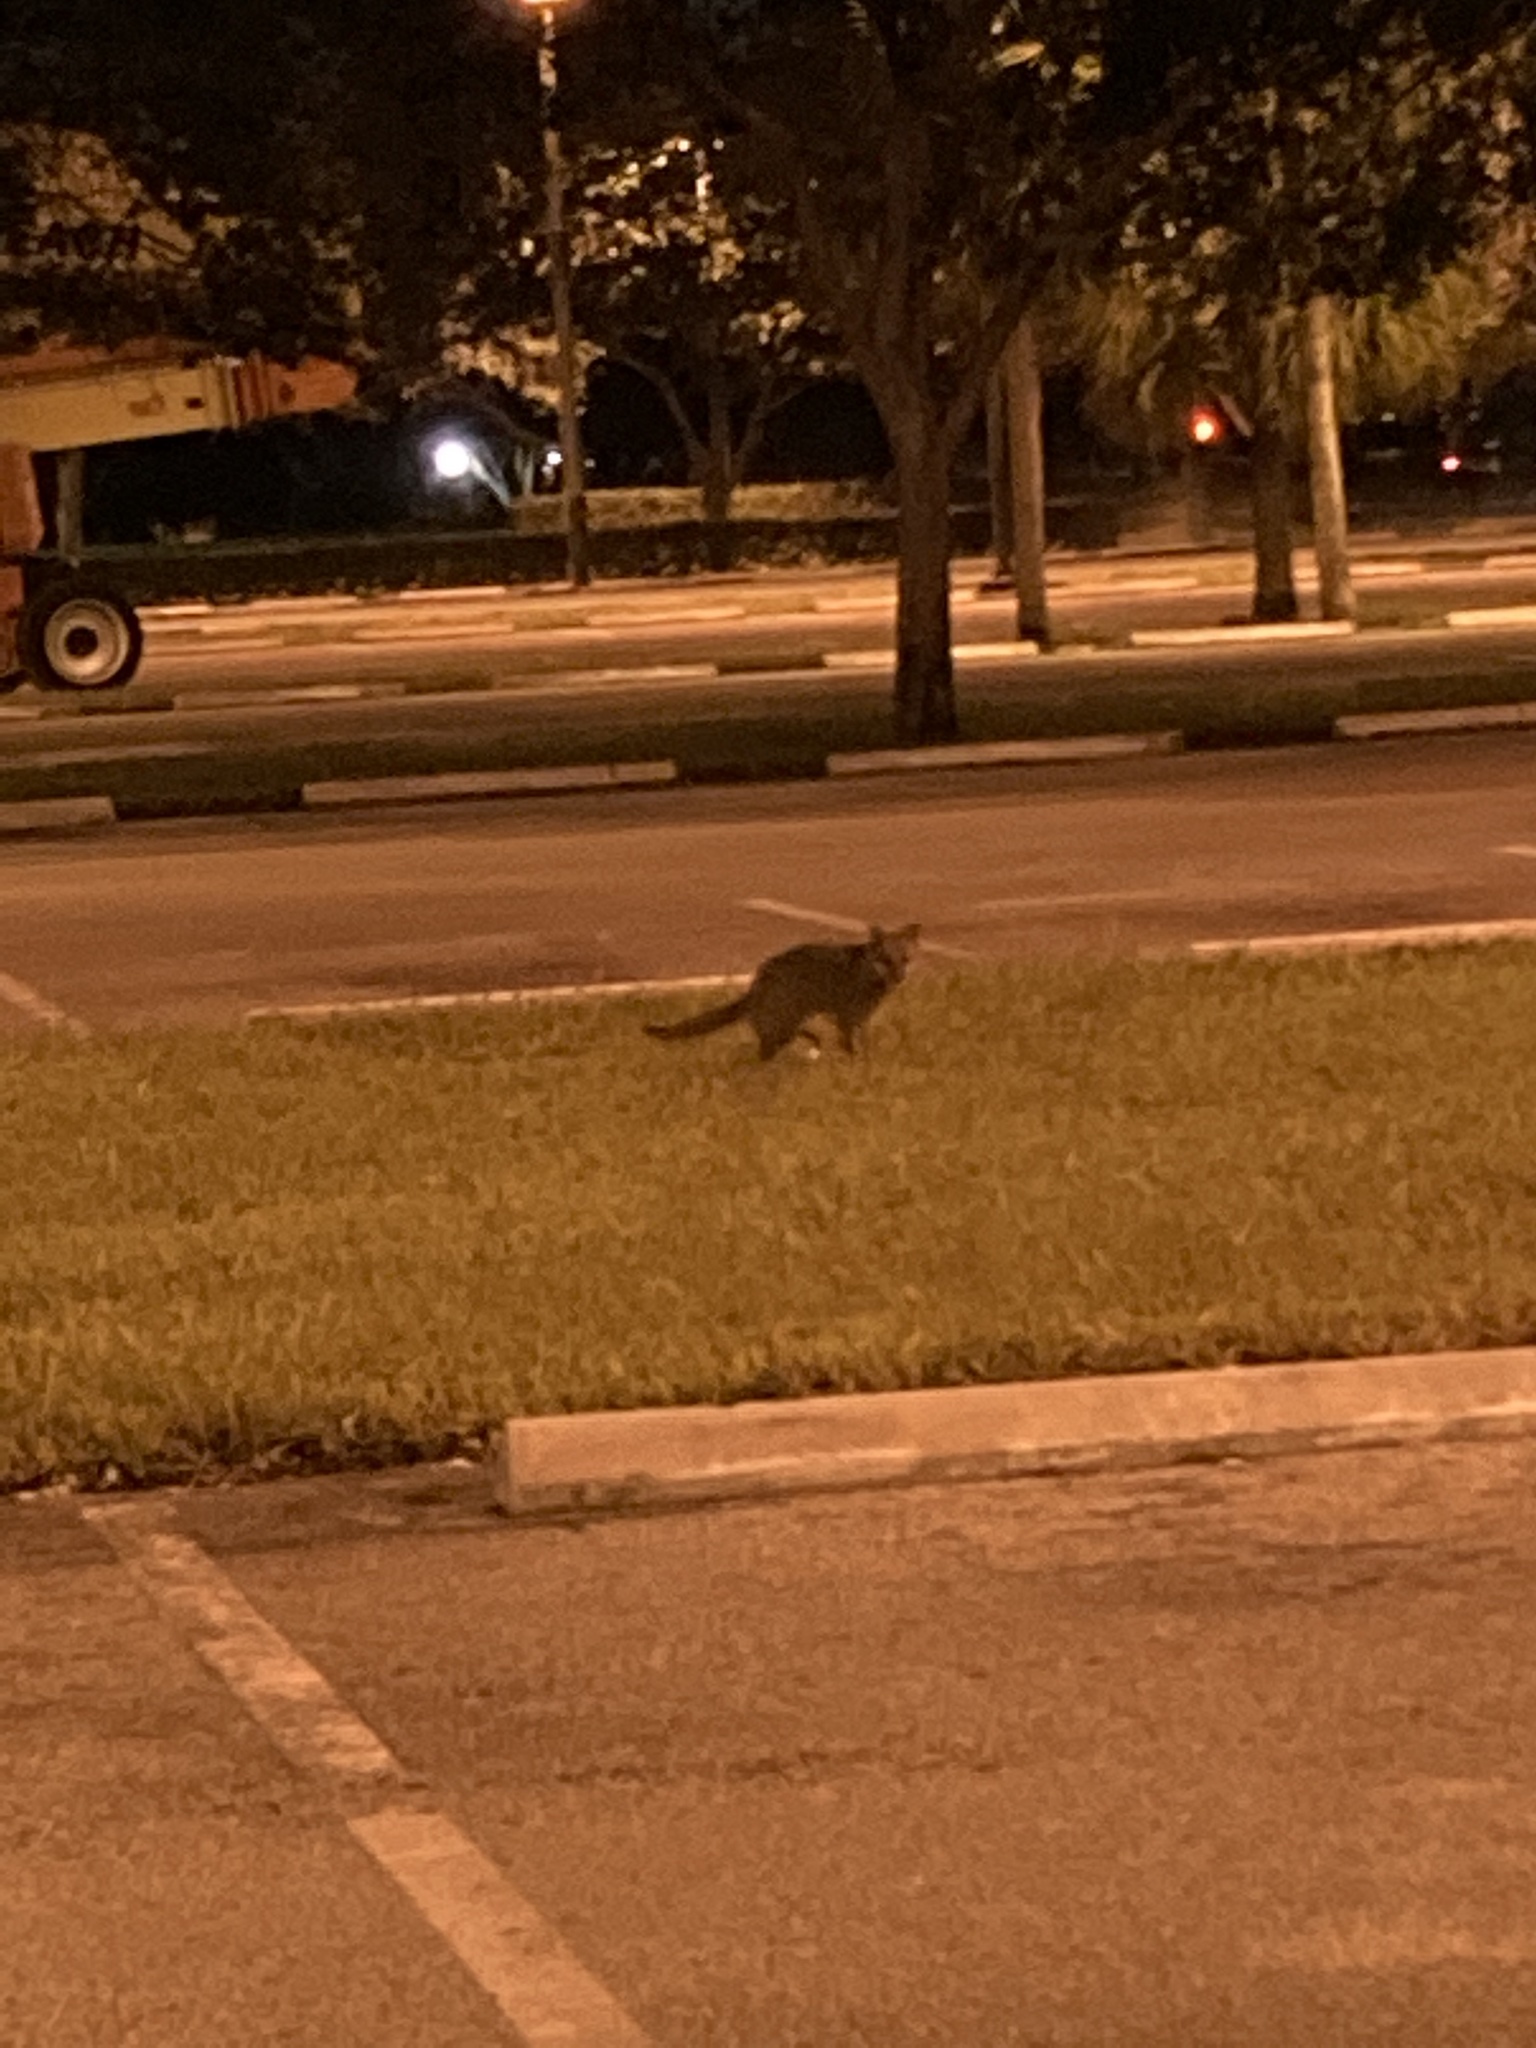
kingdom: Animalia
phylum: Chordata
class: Mammalia
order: Carnivora
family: Canidae
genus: Urocyon
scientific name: Urocyon cinereoargenteus
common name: Gray fox
